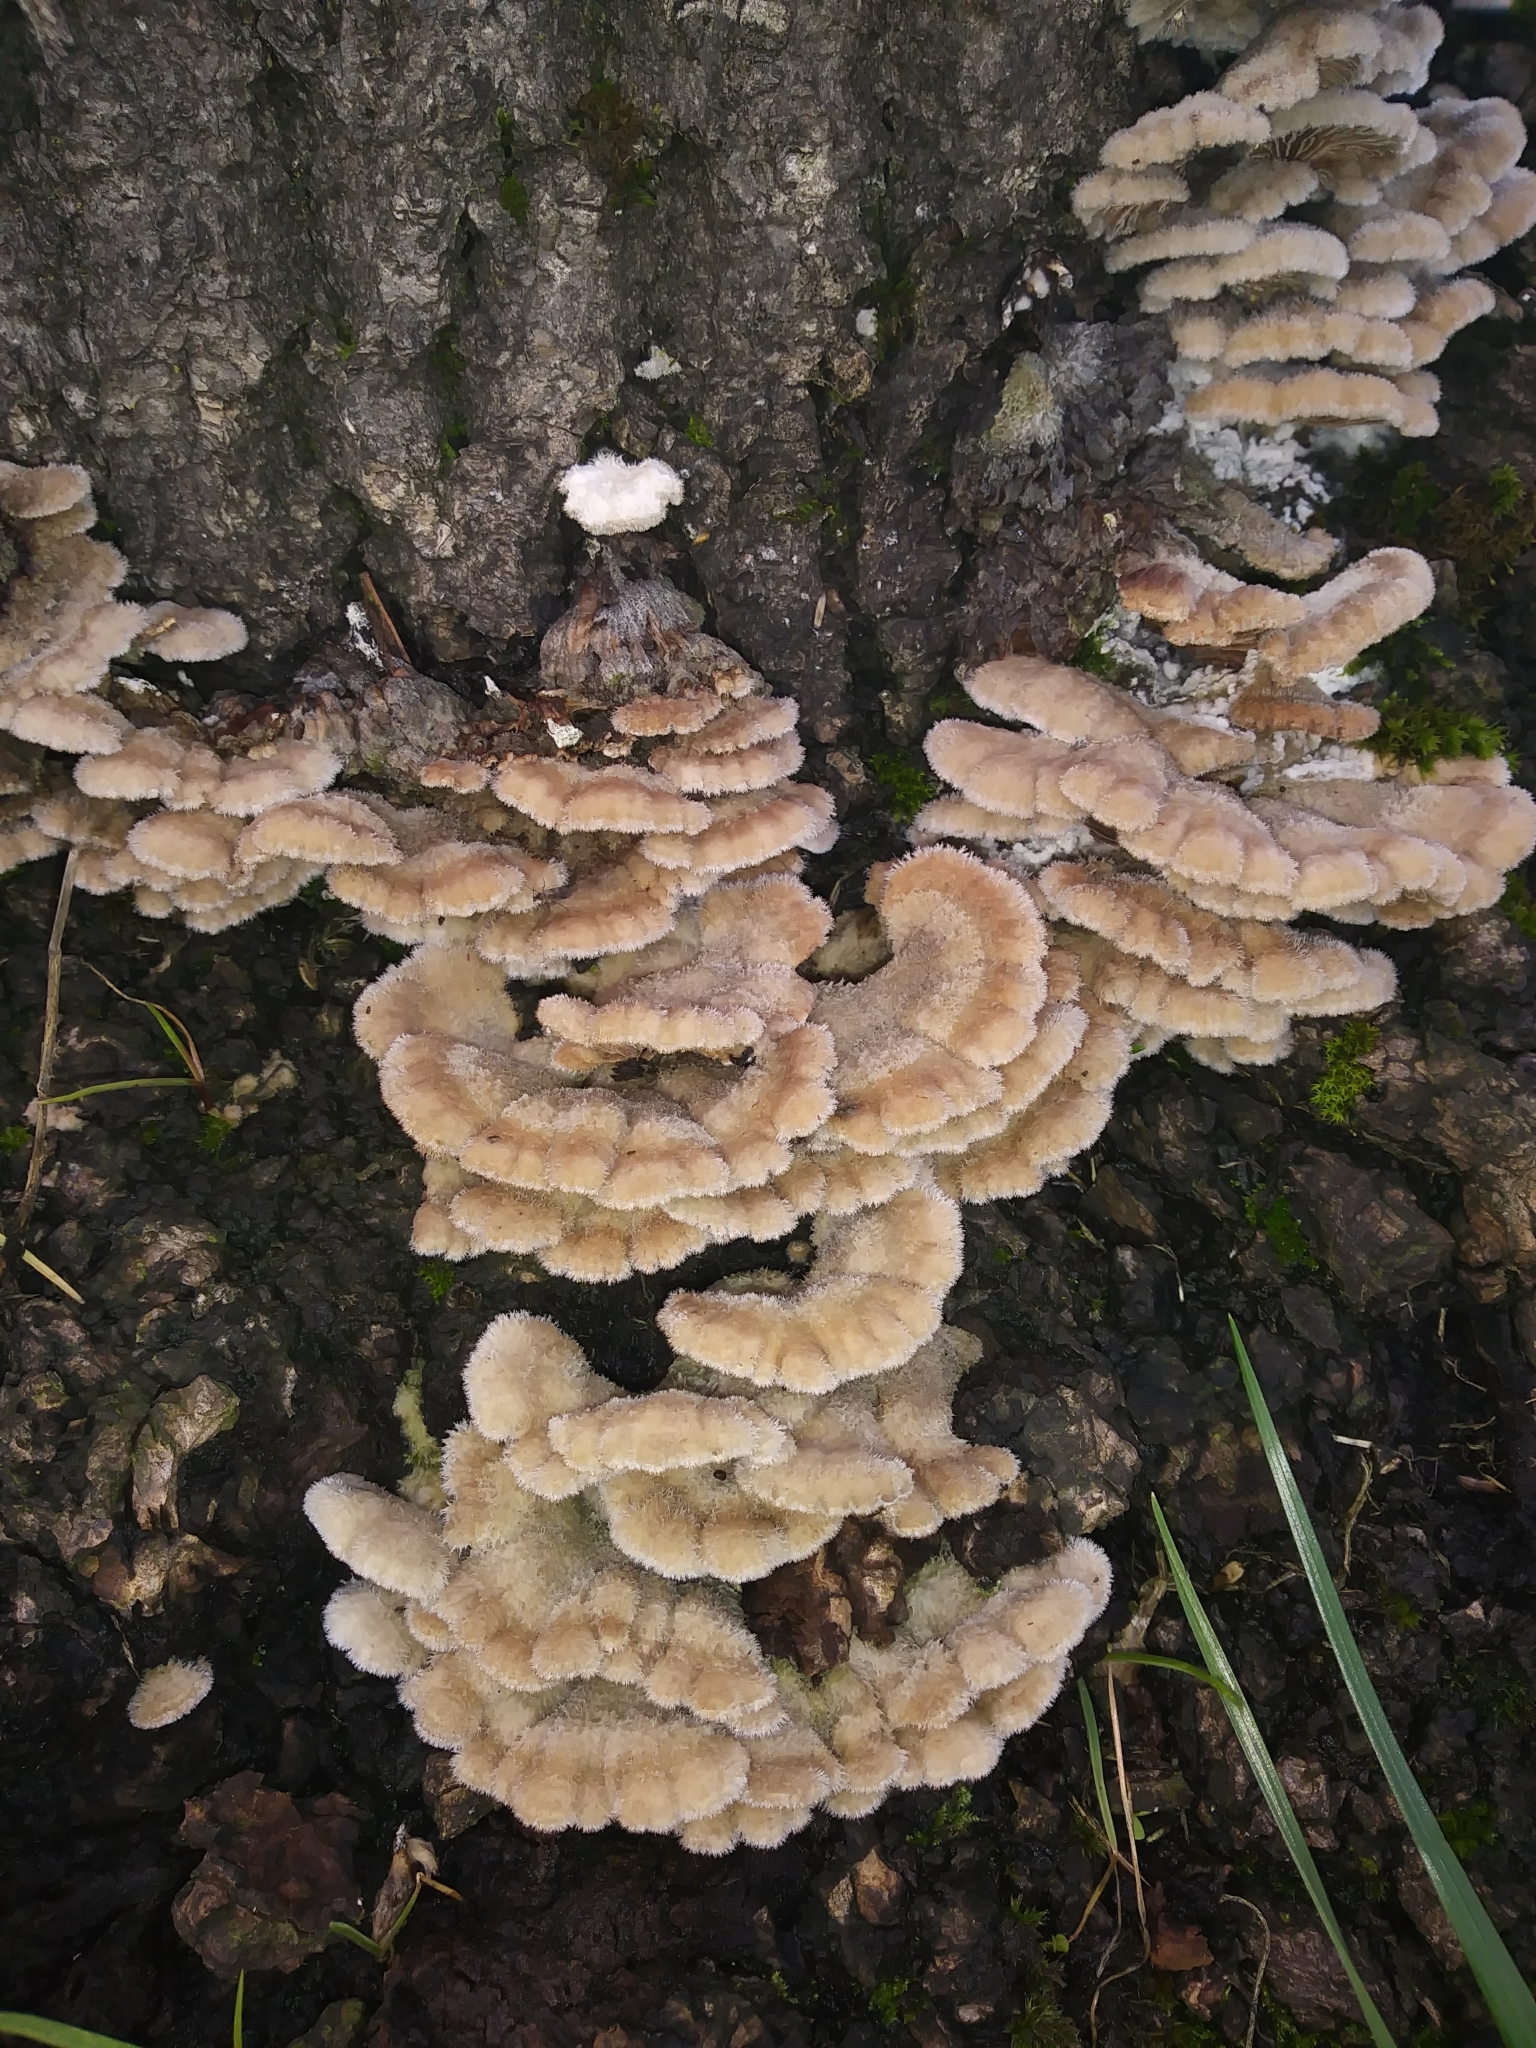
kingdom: Fungi
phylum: Basidiomycota
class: Agaricomycetes
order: Agaricales
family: Schizophyllaceae
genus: Schizophyllum
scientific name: Schizophyllum commune
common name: Common porecrust
